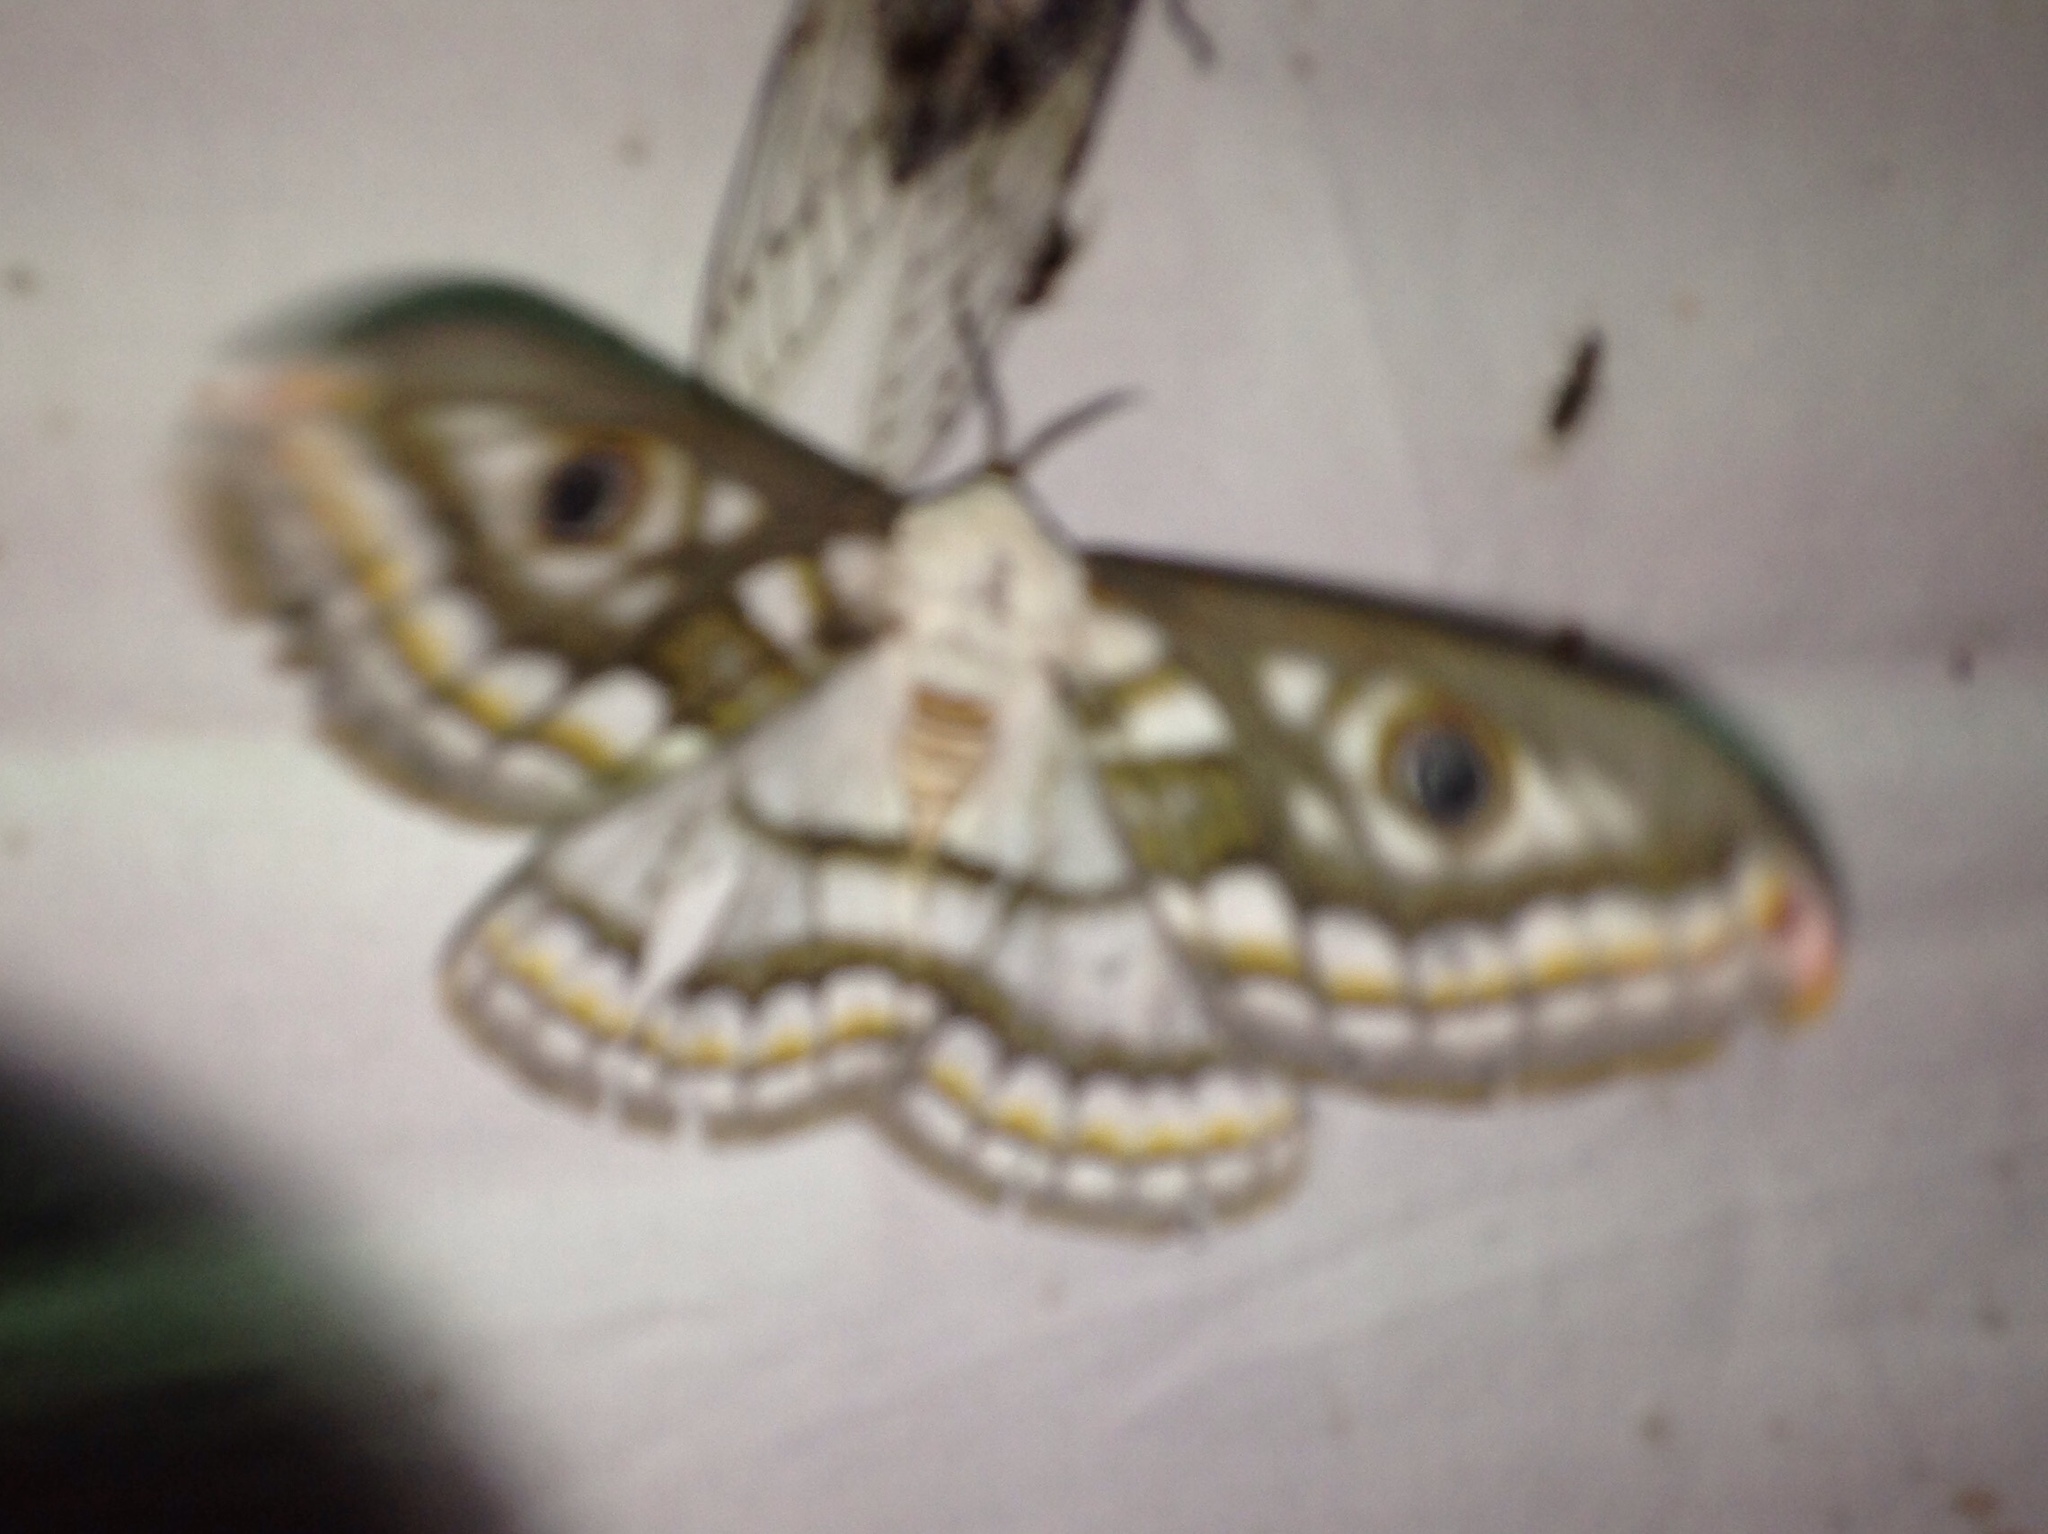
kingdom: Animalia
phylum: Arthropoda
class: Insecta
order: Lepidoptera
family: Saturniidae
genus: Heniocha
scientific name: Heniocha dyops
